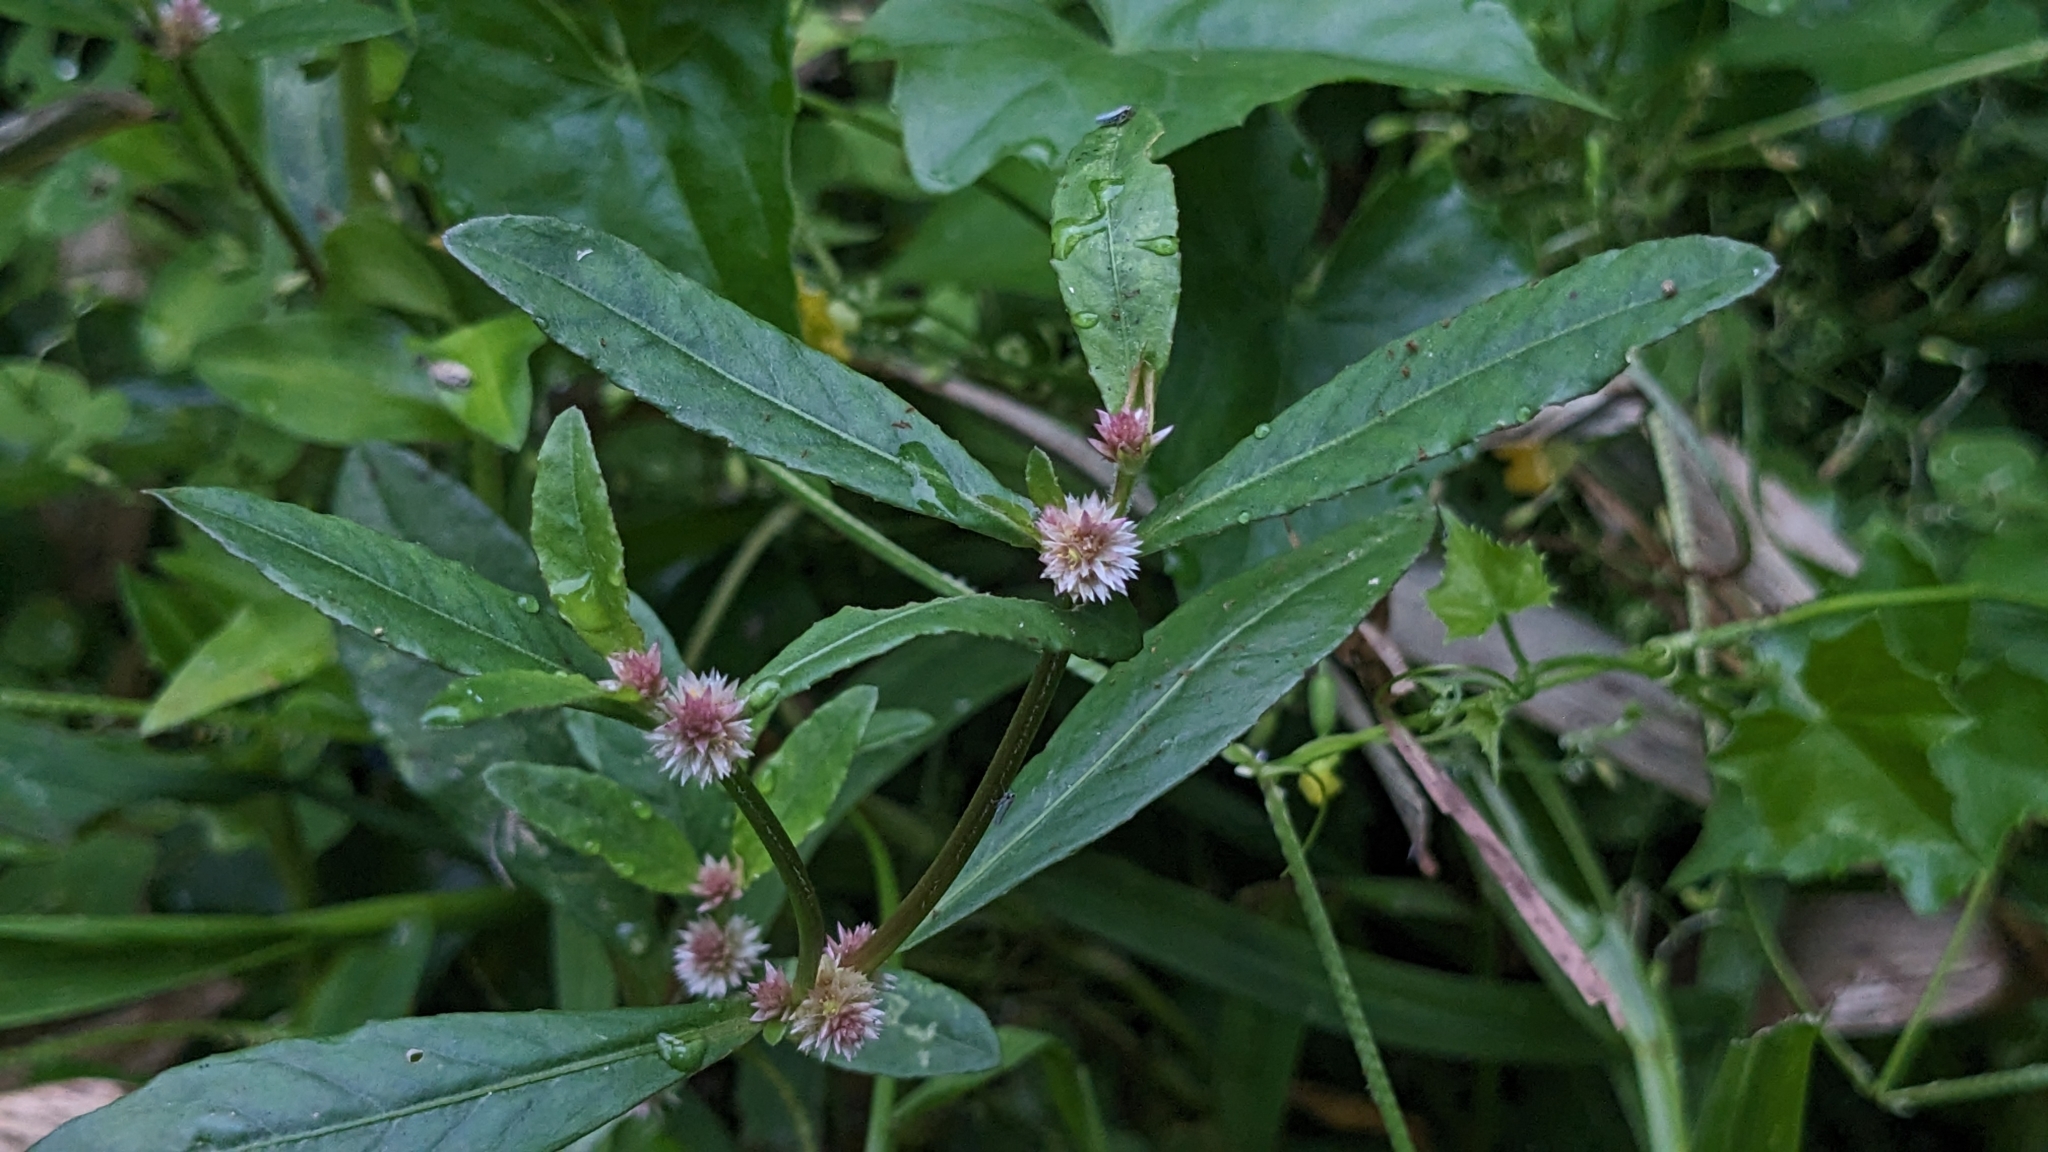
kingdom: Plantae
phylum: Tracheophyta
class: Magnoliopsida
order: Caryophyllales
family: Amaranthaceae
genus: Alternanthera
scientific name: Alternanthera sessilis
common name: Sessile joyweed
